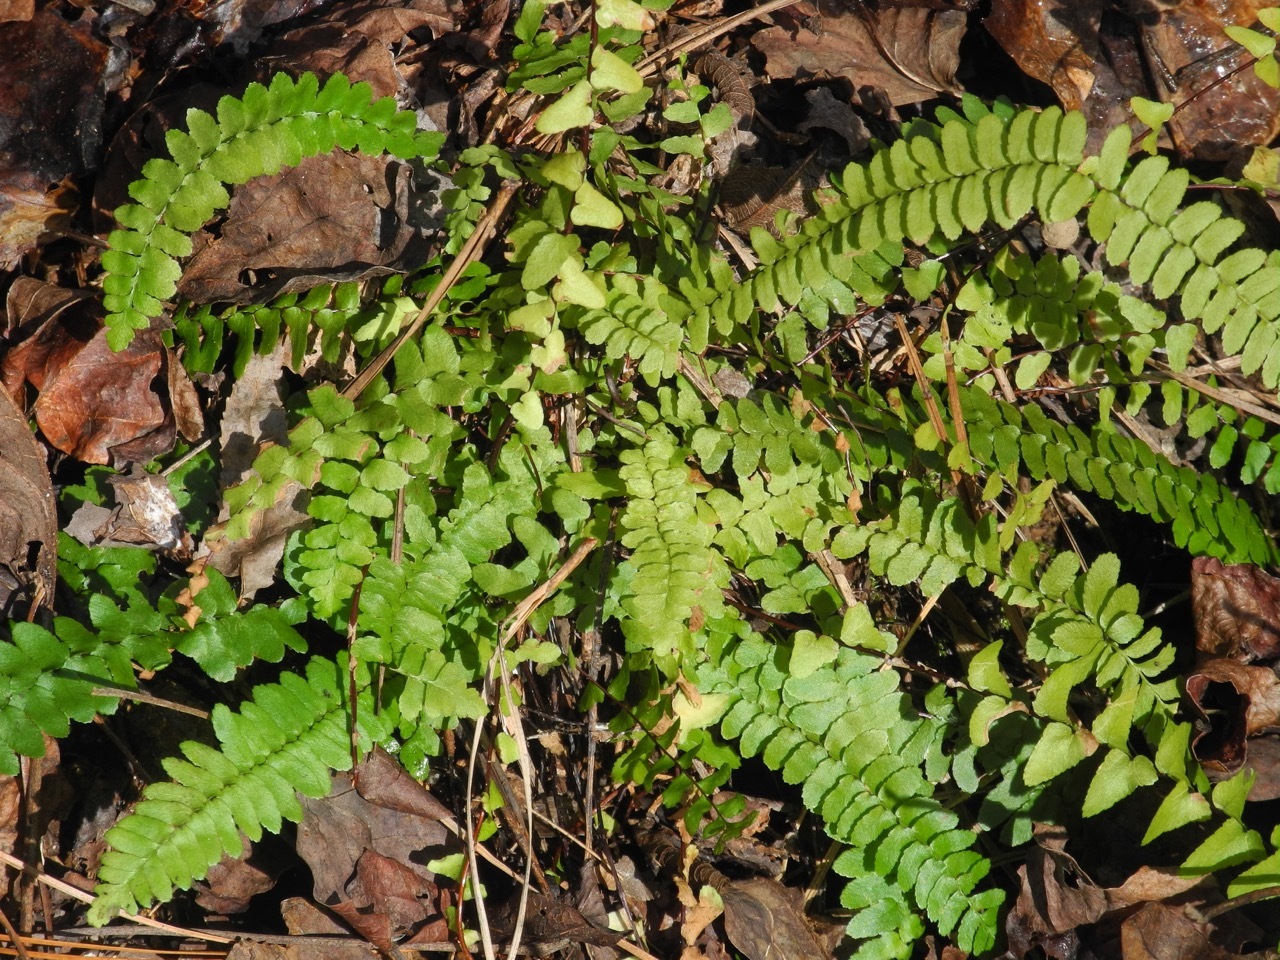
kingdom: Plantae
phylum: Tracheophyta
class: Polypodiopsida
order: Polypodiales
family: Aspleniaceae
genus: Asplenium
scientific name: Asplenium platyneuron
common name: Ebony spleenwort
